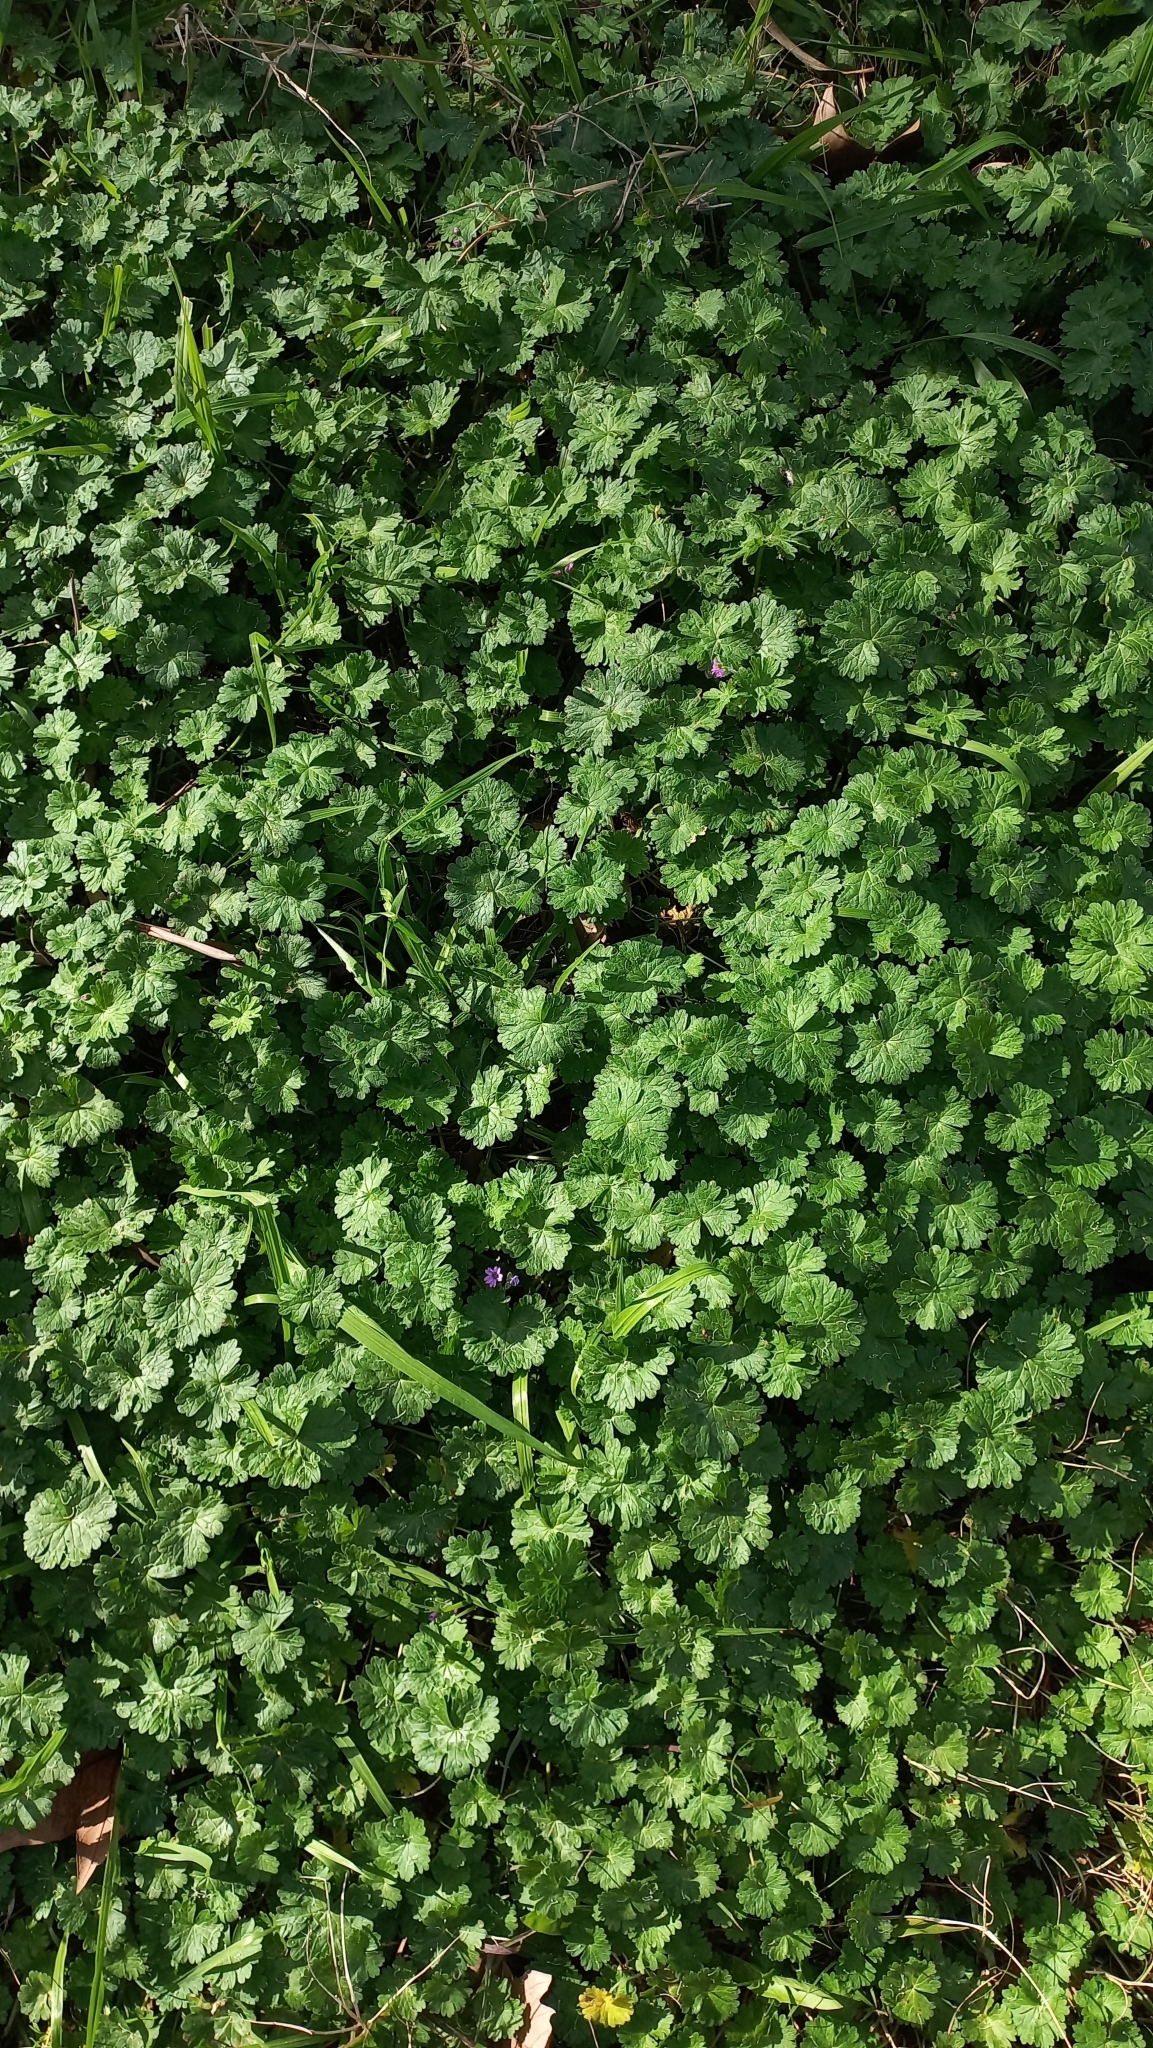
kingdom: Plantae
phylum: Tracheophyta
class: Magnoliopsida
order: Geraniales
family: Geraniaceae
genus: Geranium
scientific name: Geranium molle
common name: Dove's-foot crane's-bill
